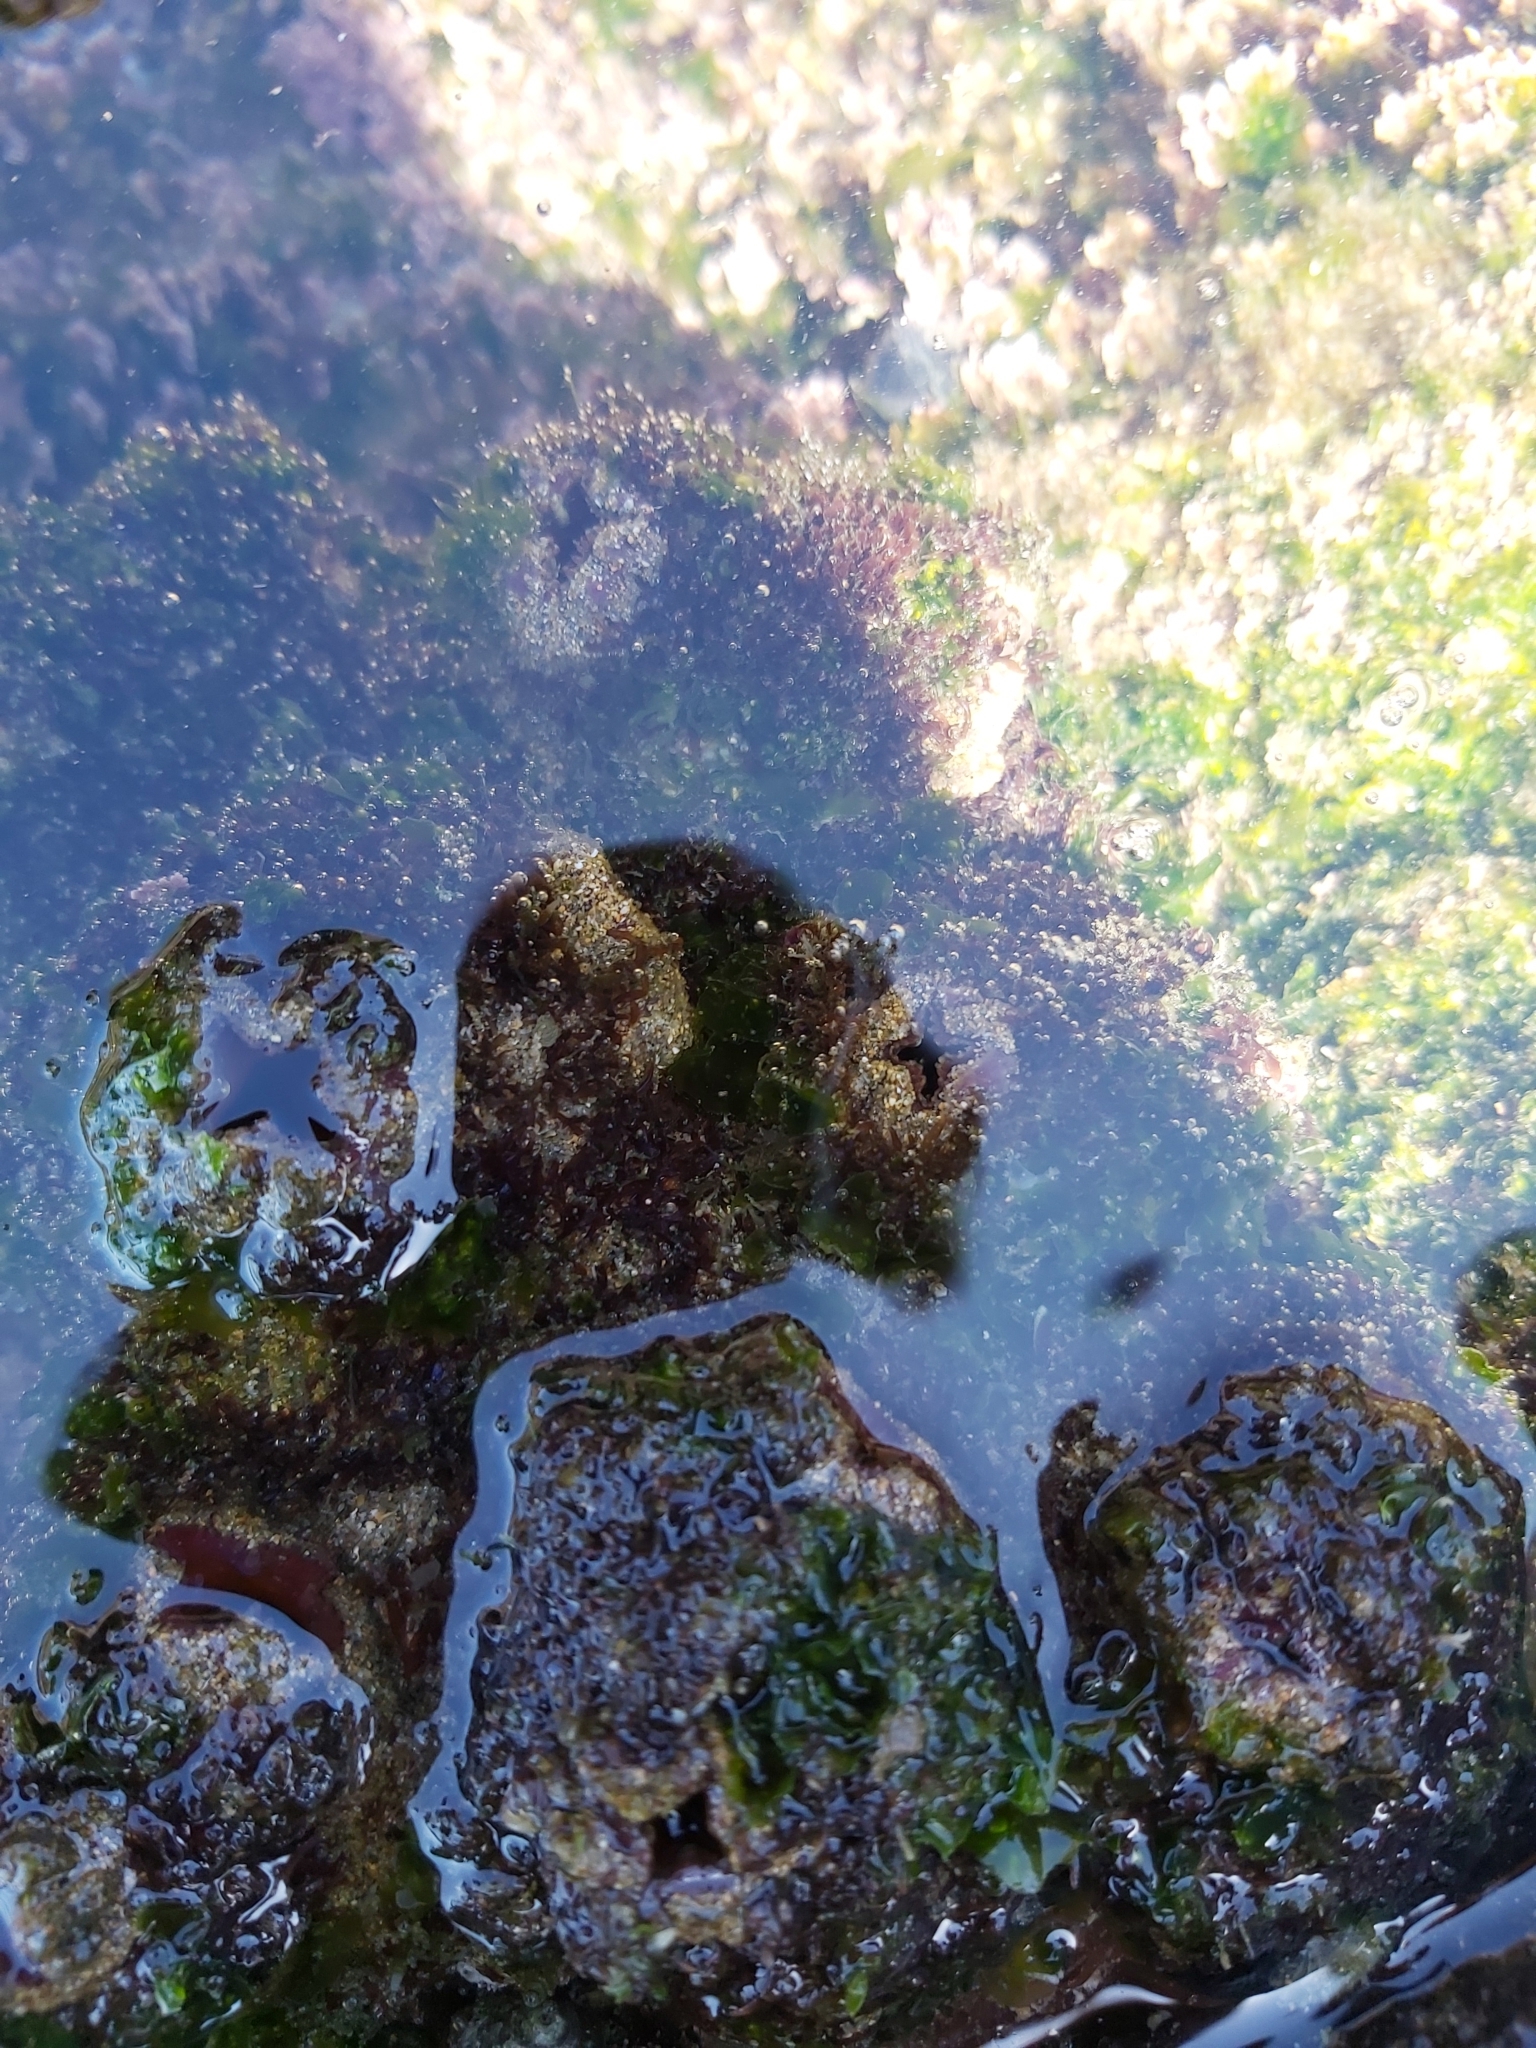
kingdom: Animalia
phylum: Chordata
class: Ascidiacea
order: Stolidobranchia
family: Pyuridae
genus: Pyura
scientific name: Pyura praeputialis
